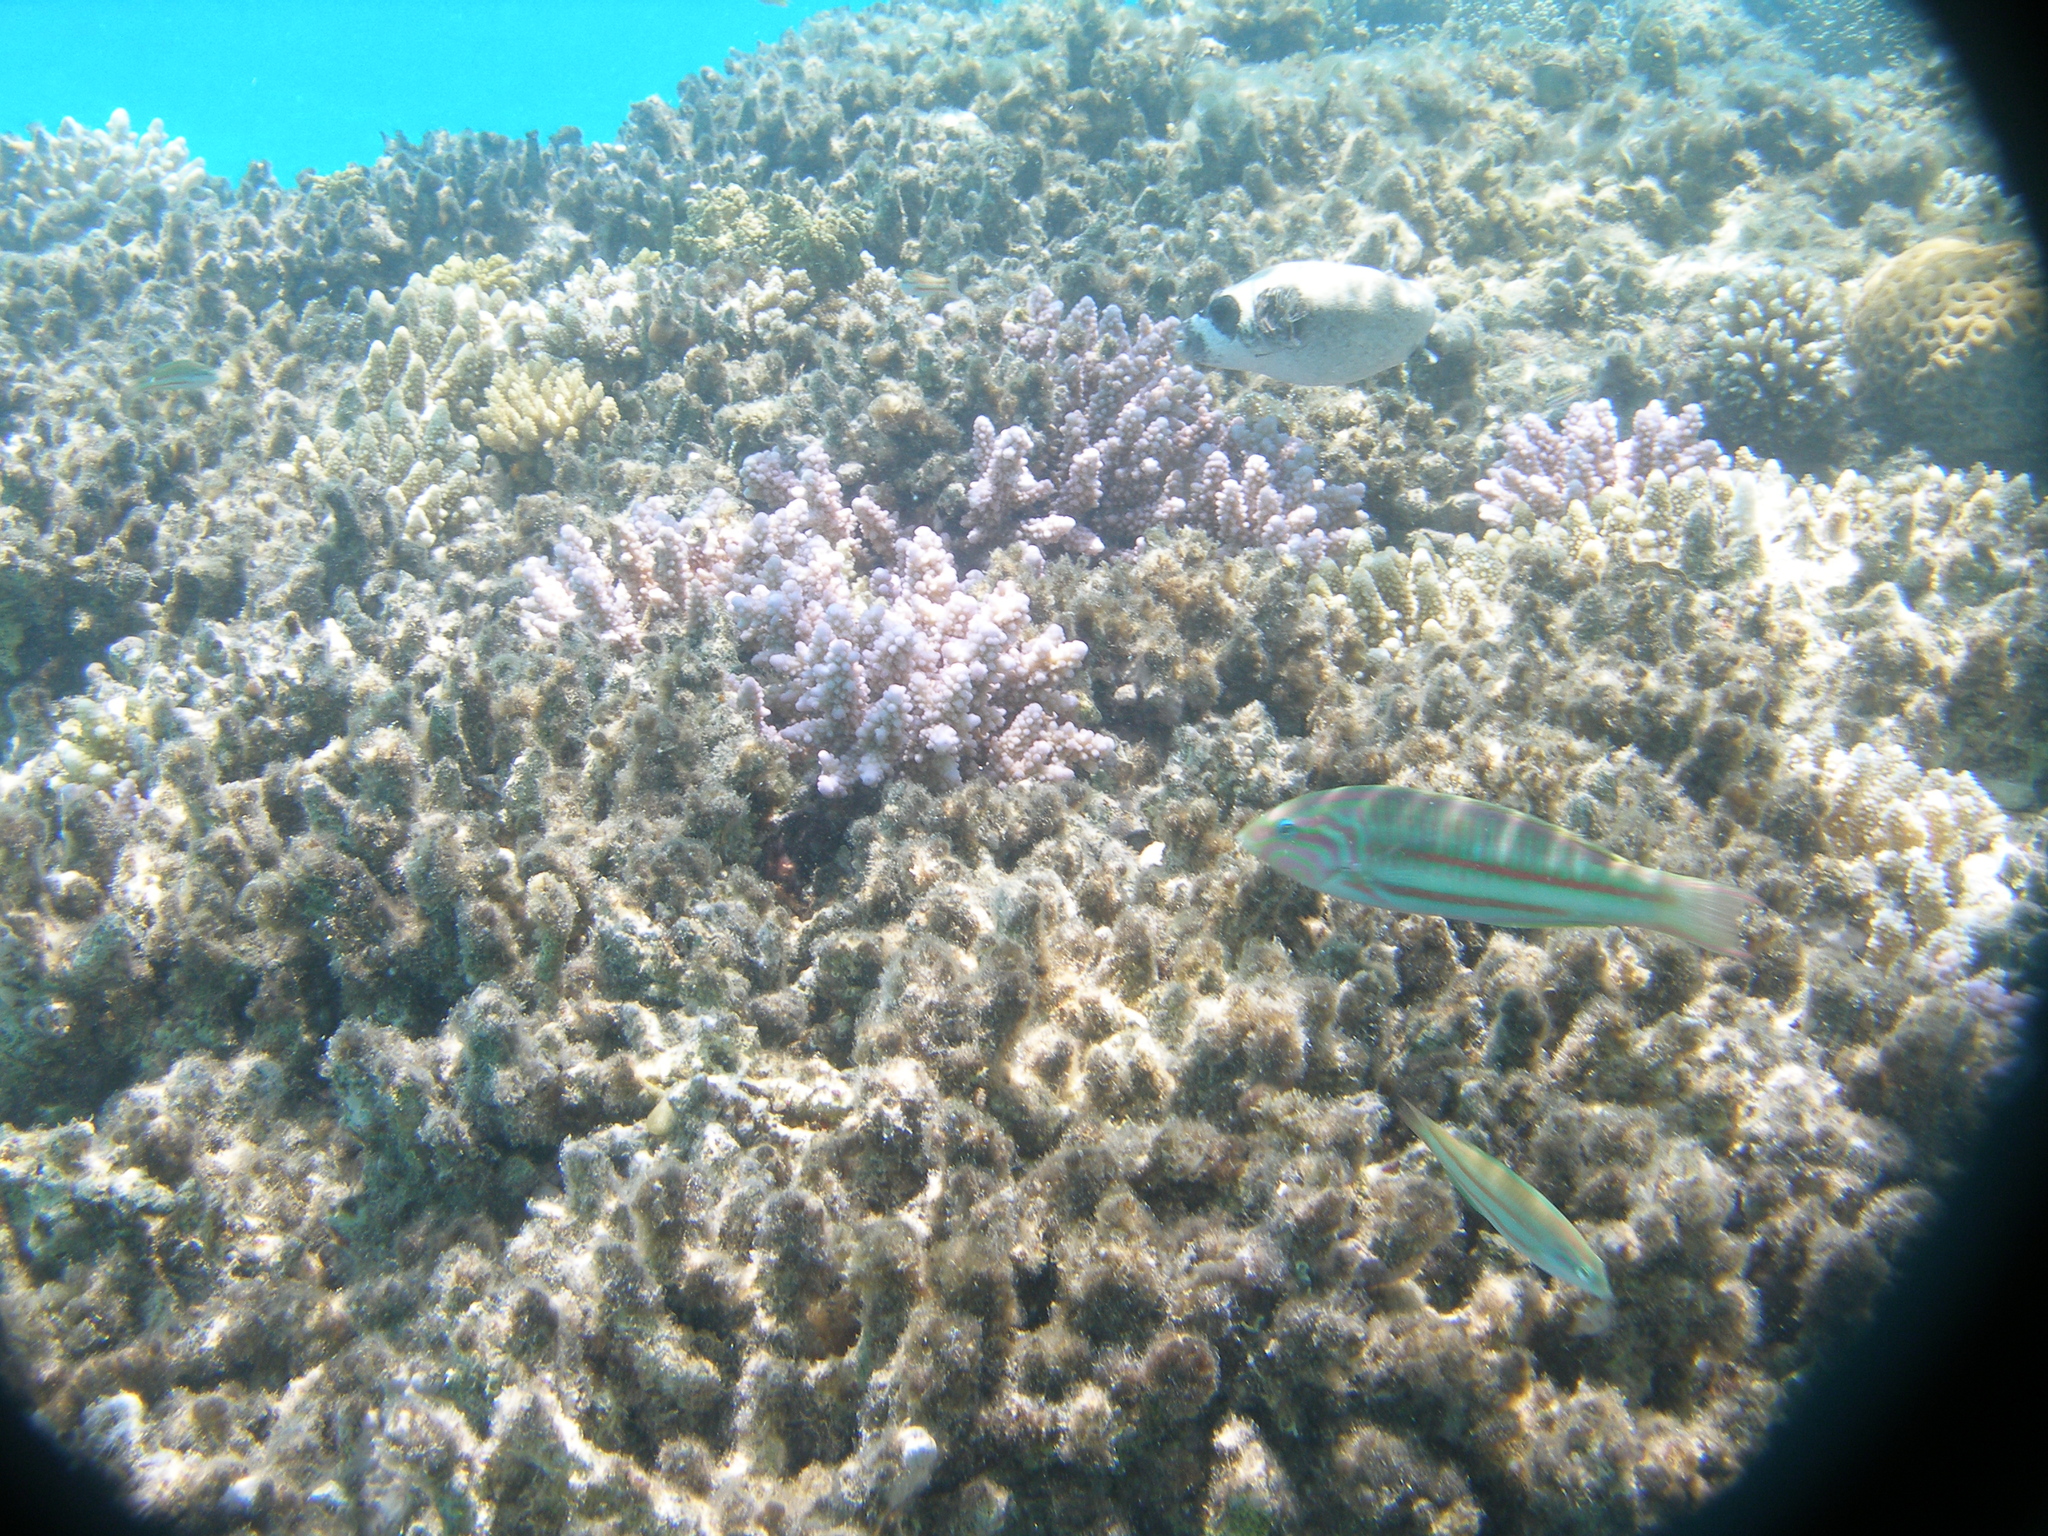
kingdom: Animalia
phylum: Chordata
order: Perciformes
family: Labridae
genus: Thalassoma
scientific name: Thalassoma rueppellii
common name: Klunzinger's wrasse
